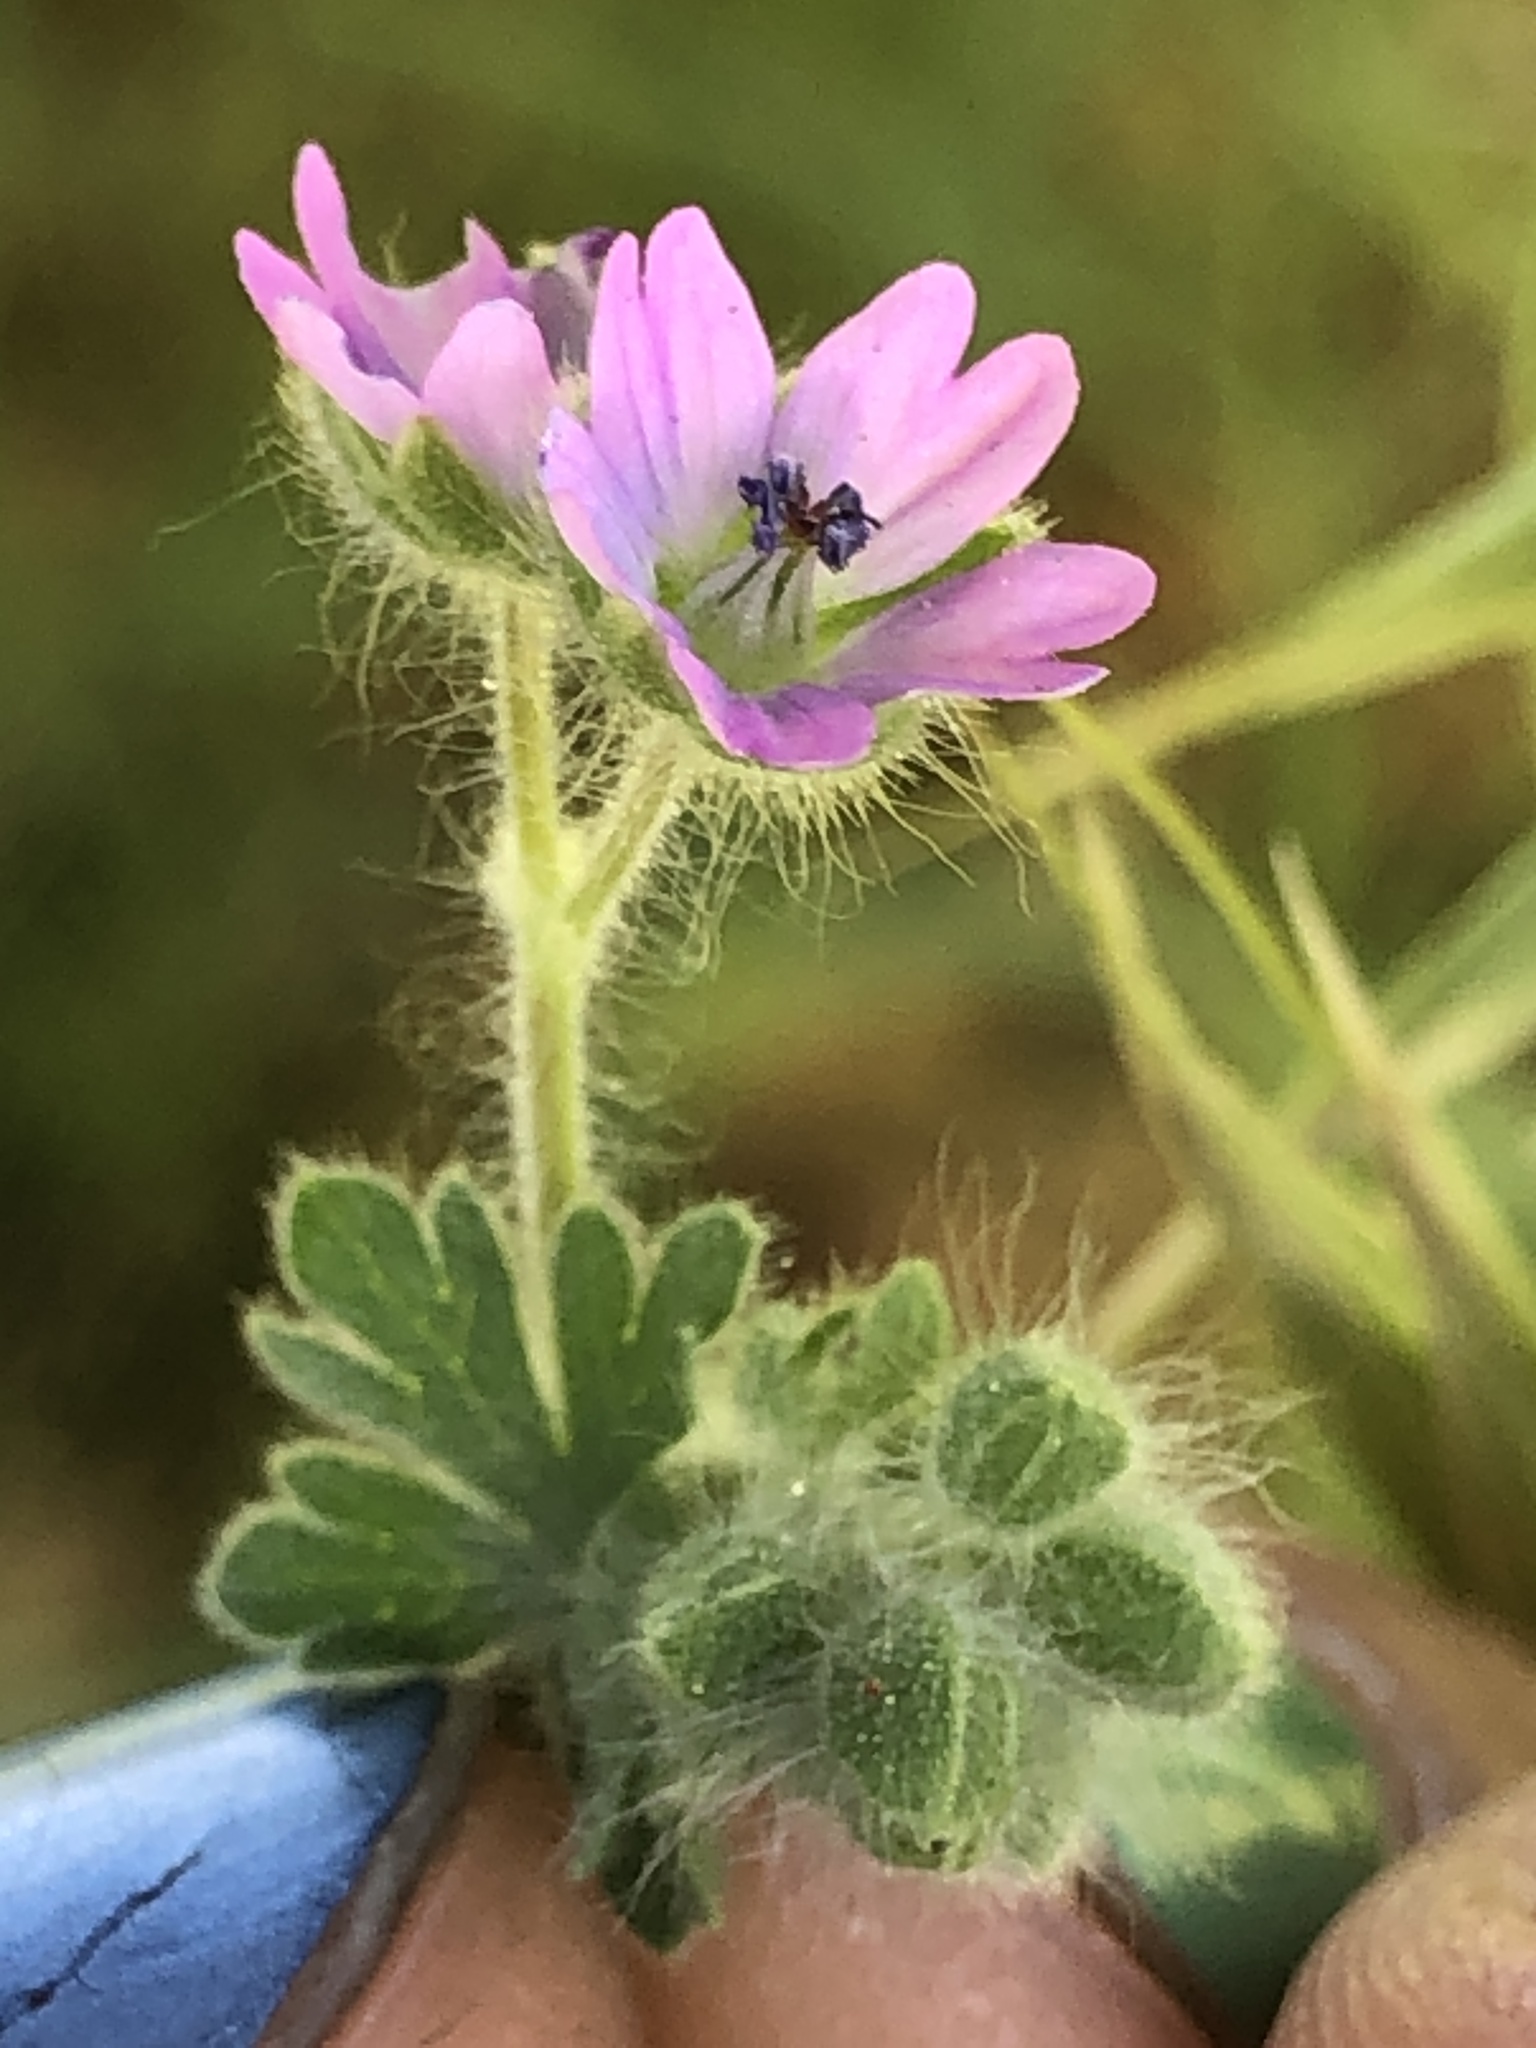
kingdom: Plantae
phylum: Tracheophyta
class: Magnoliopsida
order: Geraniales
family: Geraniaceae
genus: Geranium
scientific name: Geranium molle
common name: Dove's-foot crane's-bill
